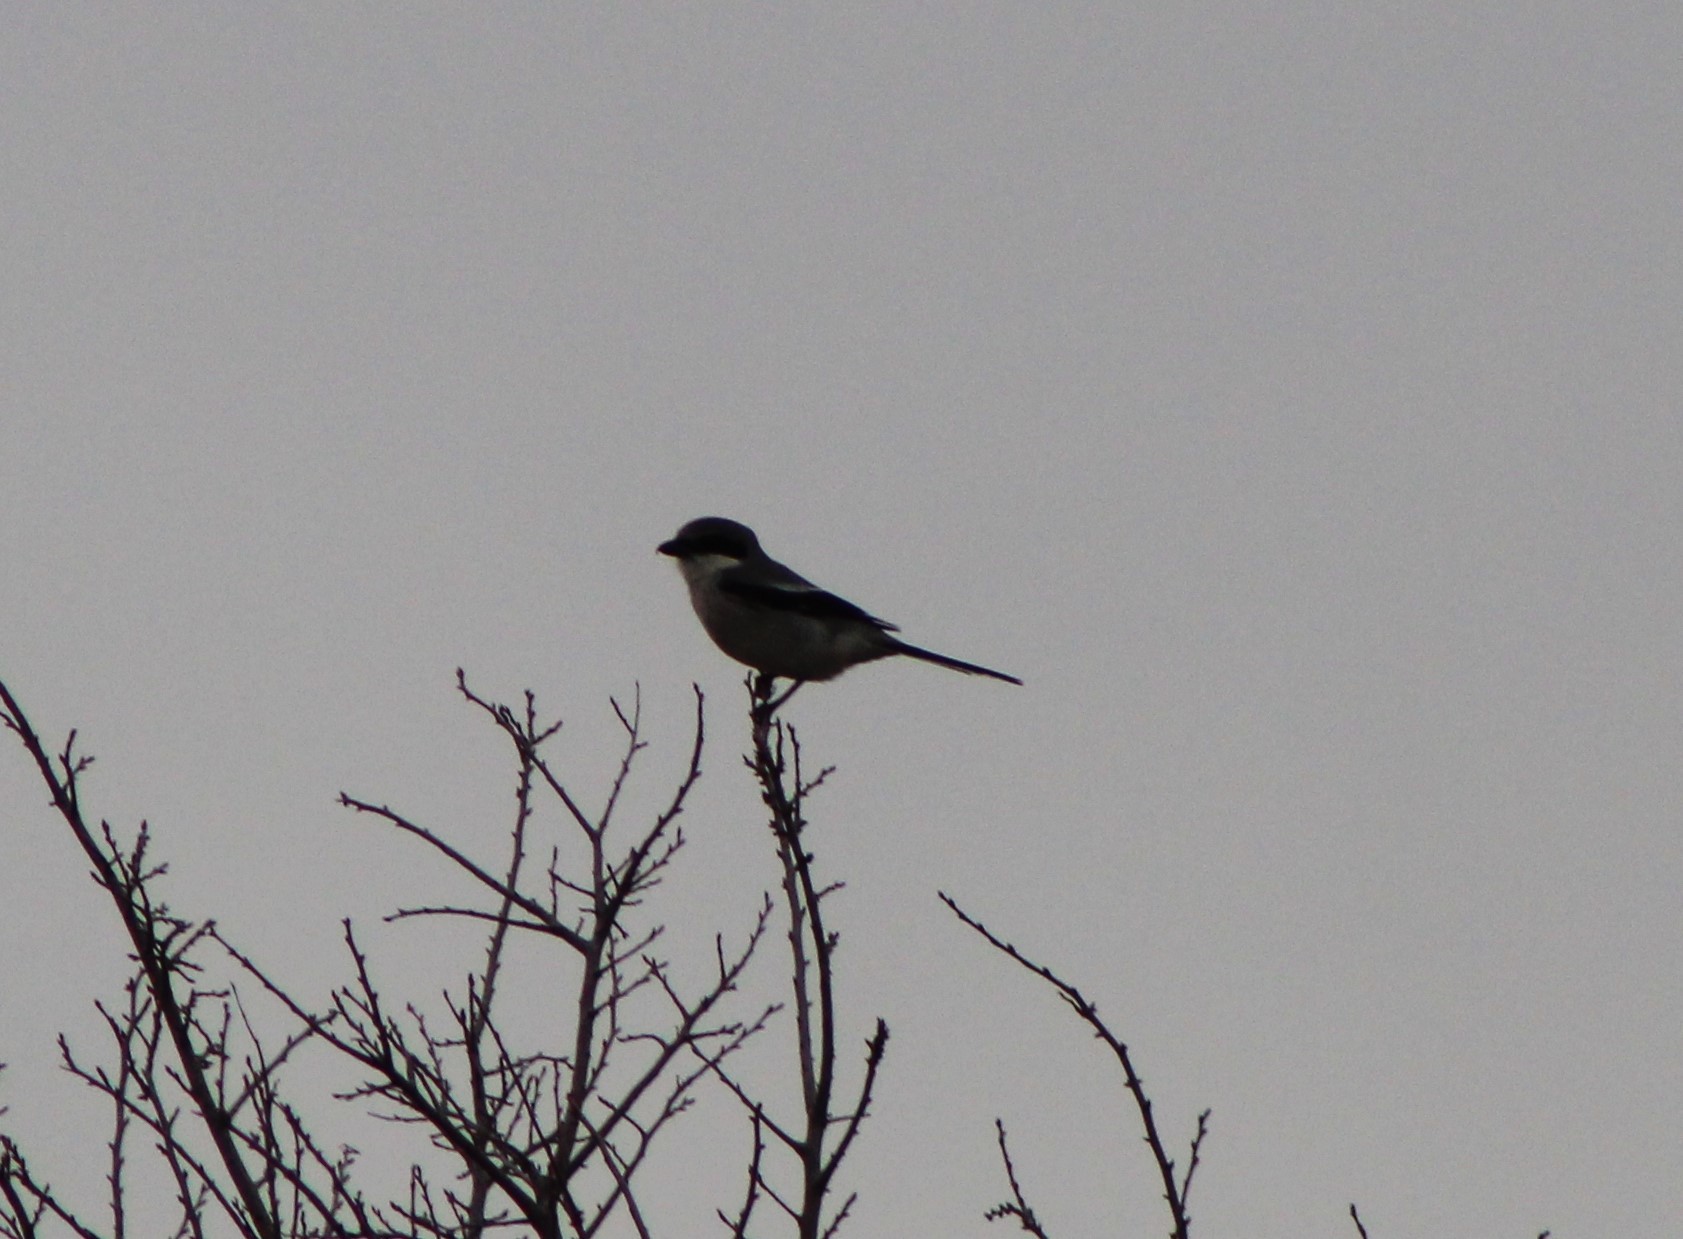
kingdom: Animalia
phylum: Chordata
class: Aves
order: Passeriformes
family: Laniidae
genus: Lanius
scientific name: Lanius ludovicianus
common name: Loggerhead shrike
